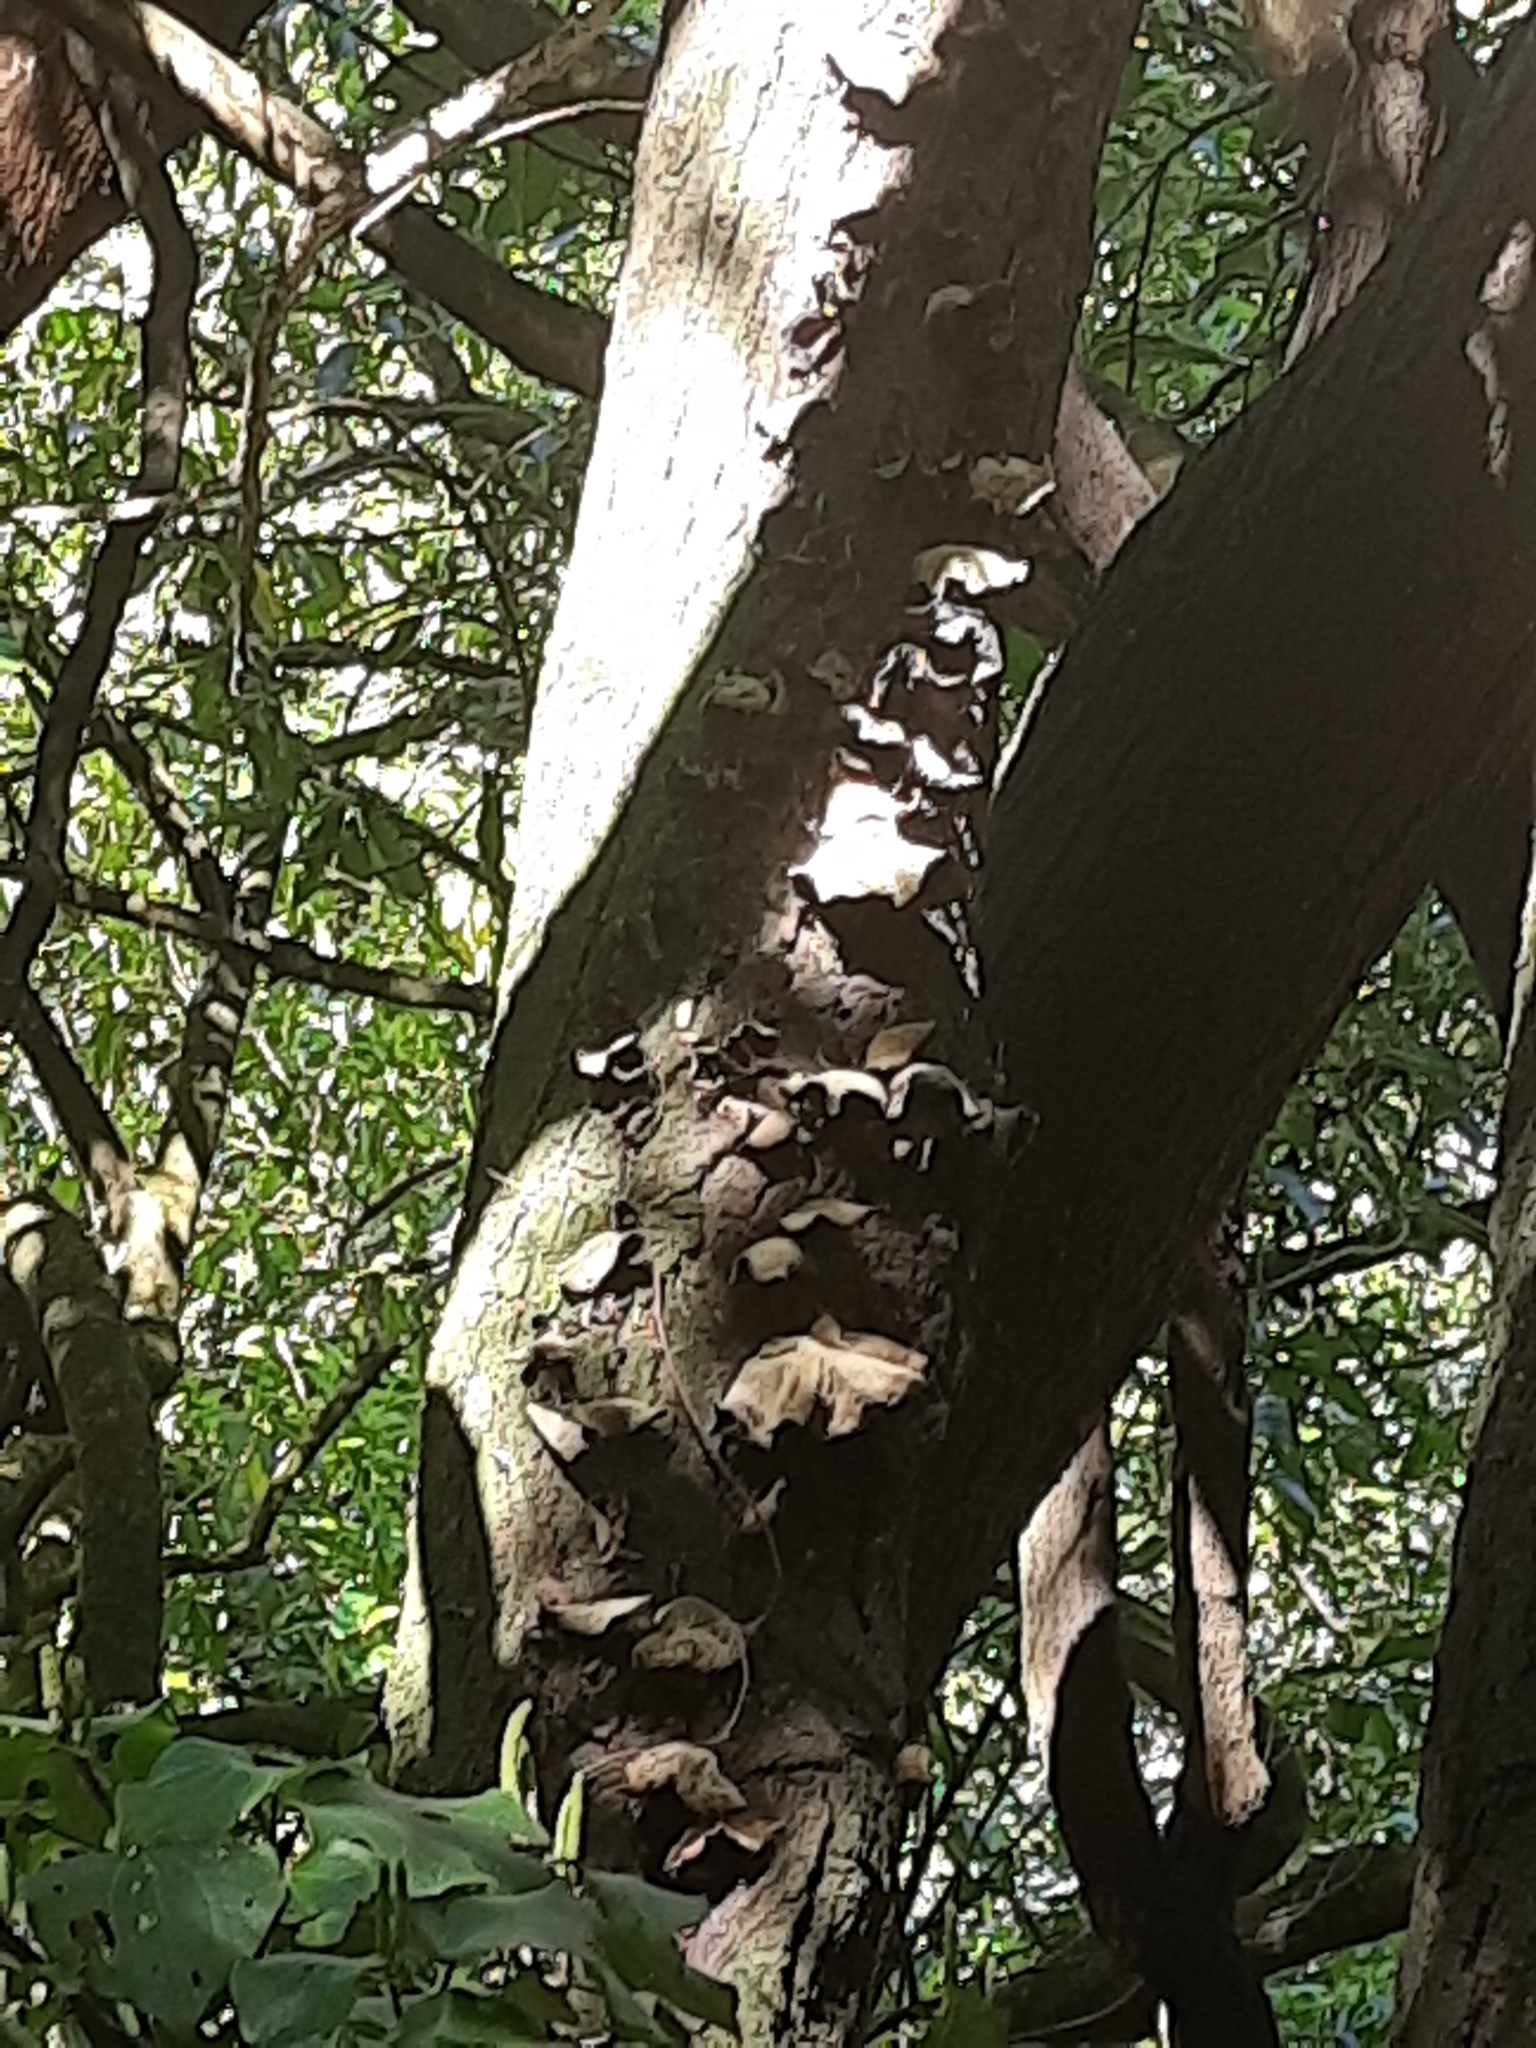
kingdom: Fungi
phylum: Basidiomycota
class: Agaricomycetes
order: Auriculariales
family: Auriculariaceae
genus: Auricularia
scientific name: Auricularia cornea
